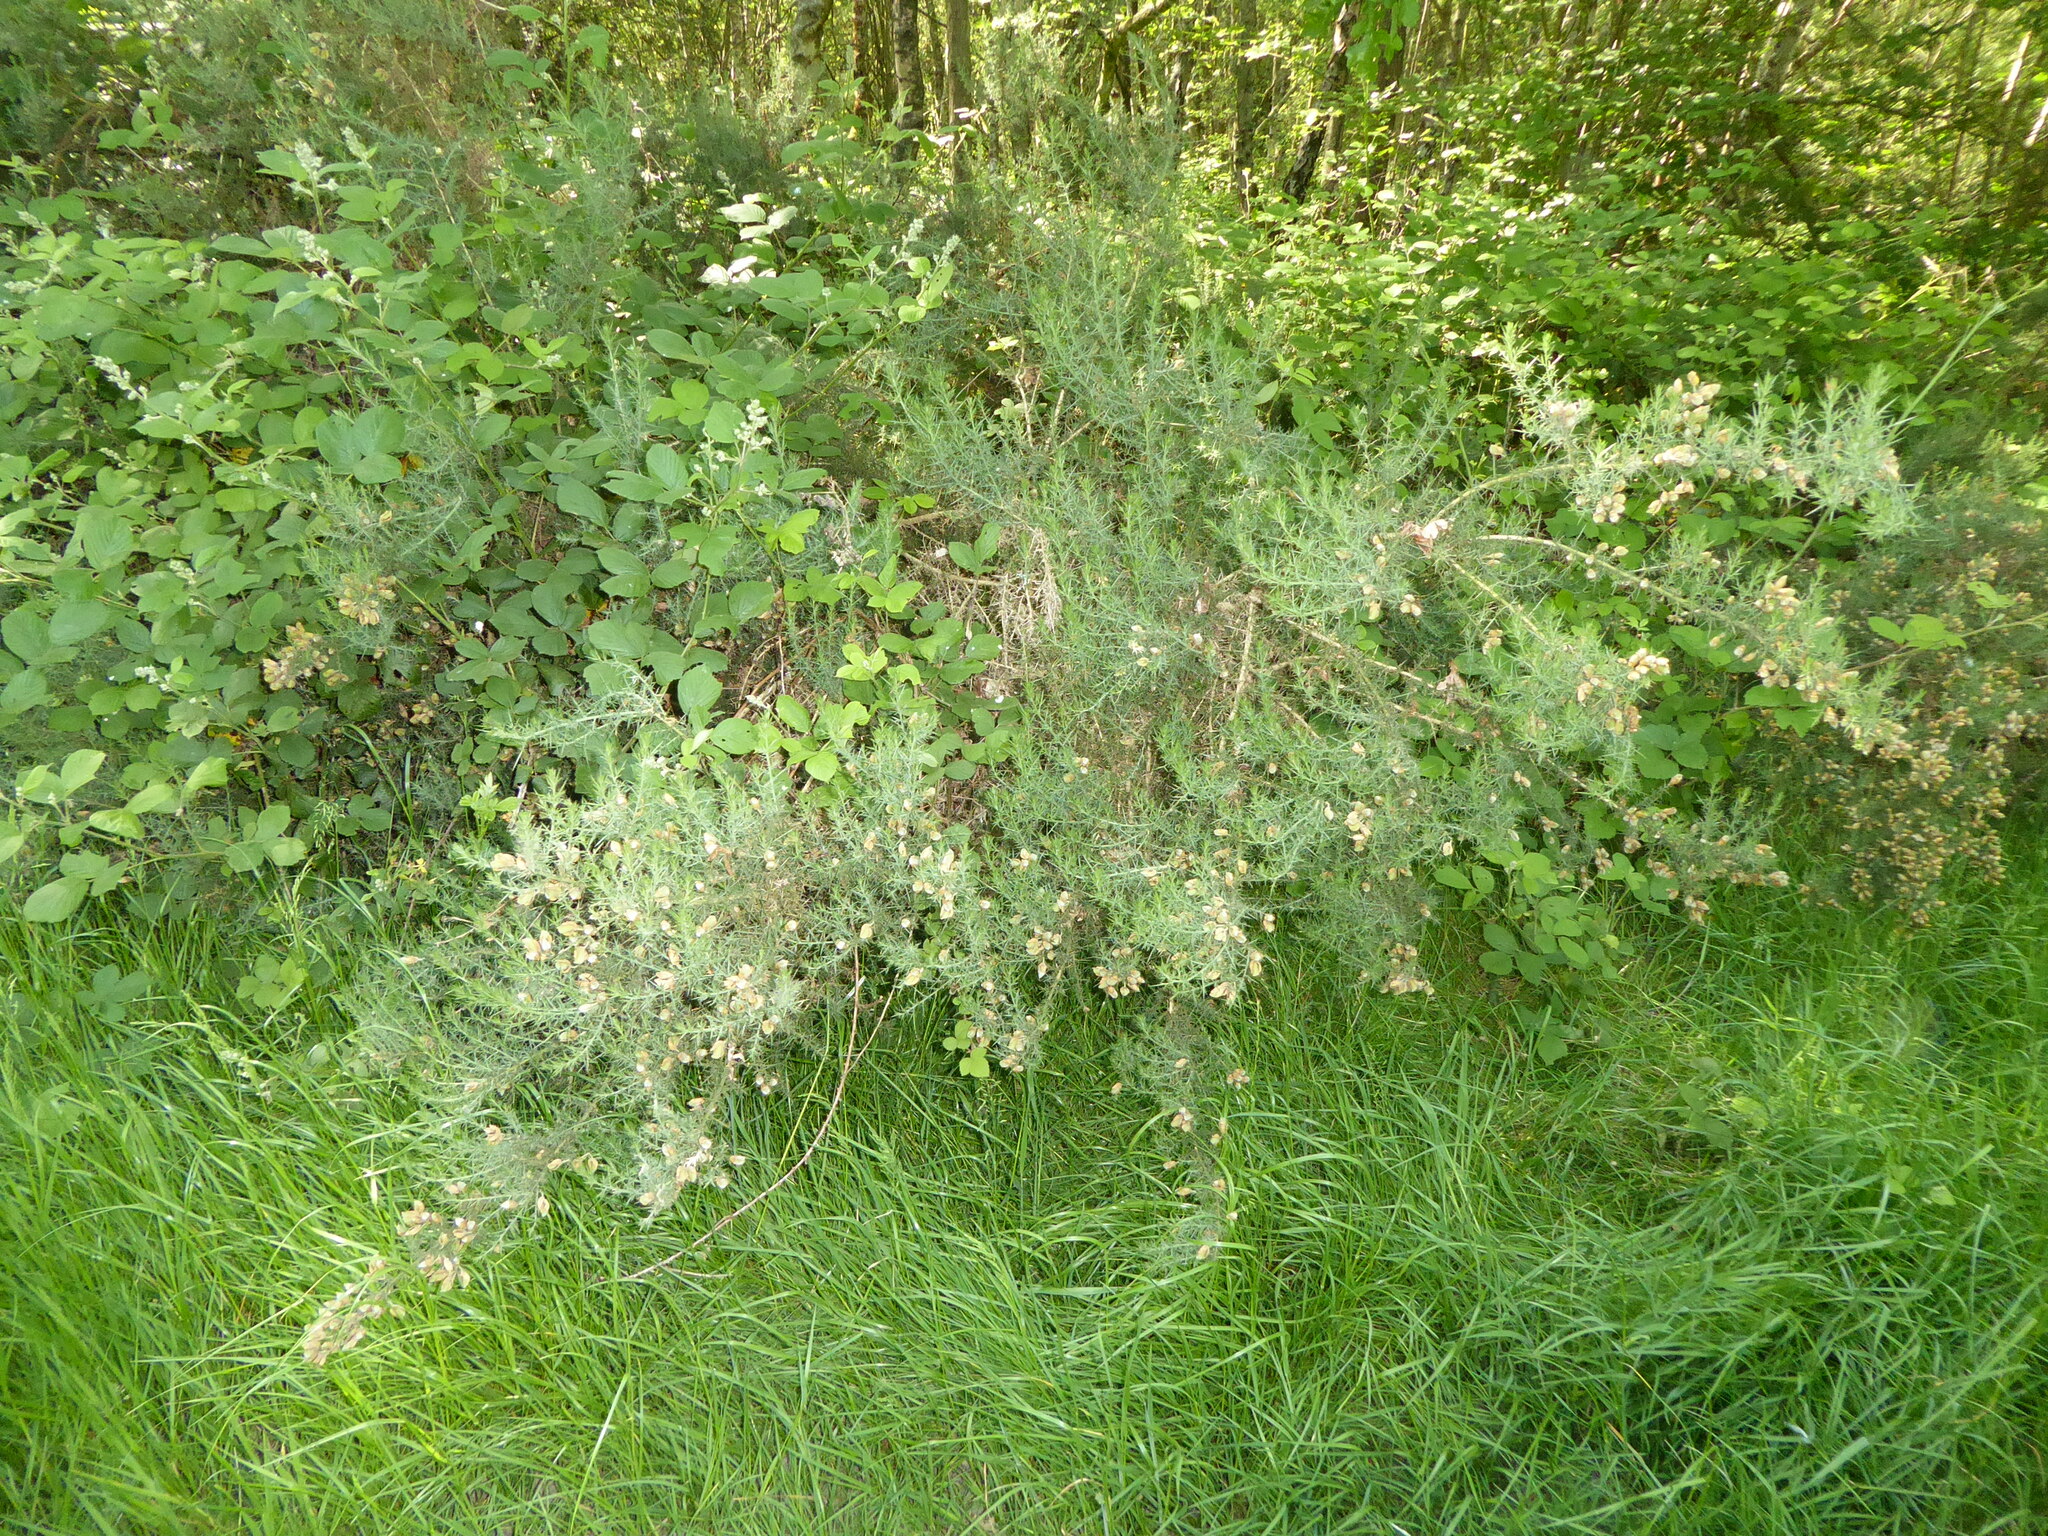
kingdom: Plantae
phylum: Tracheophyta
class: Magnoliopsida
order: Fabales
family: Fabaceae
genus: Ulex
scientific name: Ulex europaeus
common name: Common gorse
